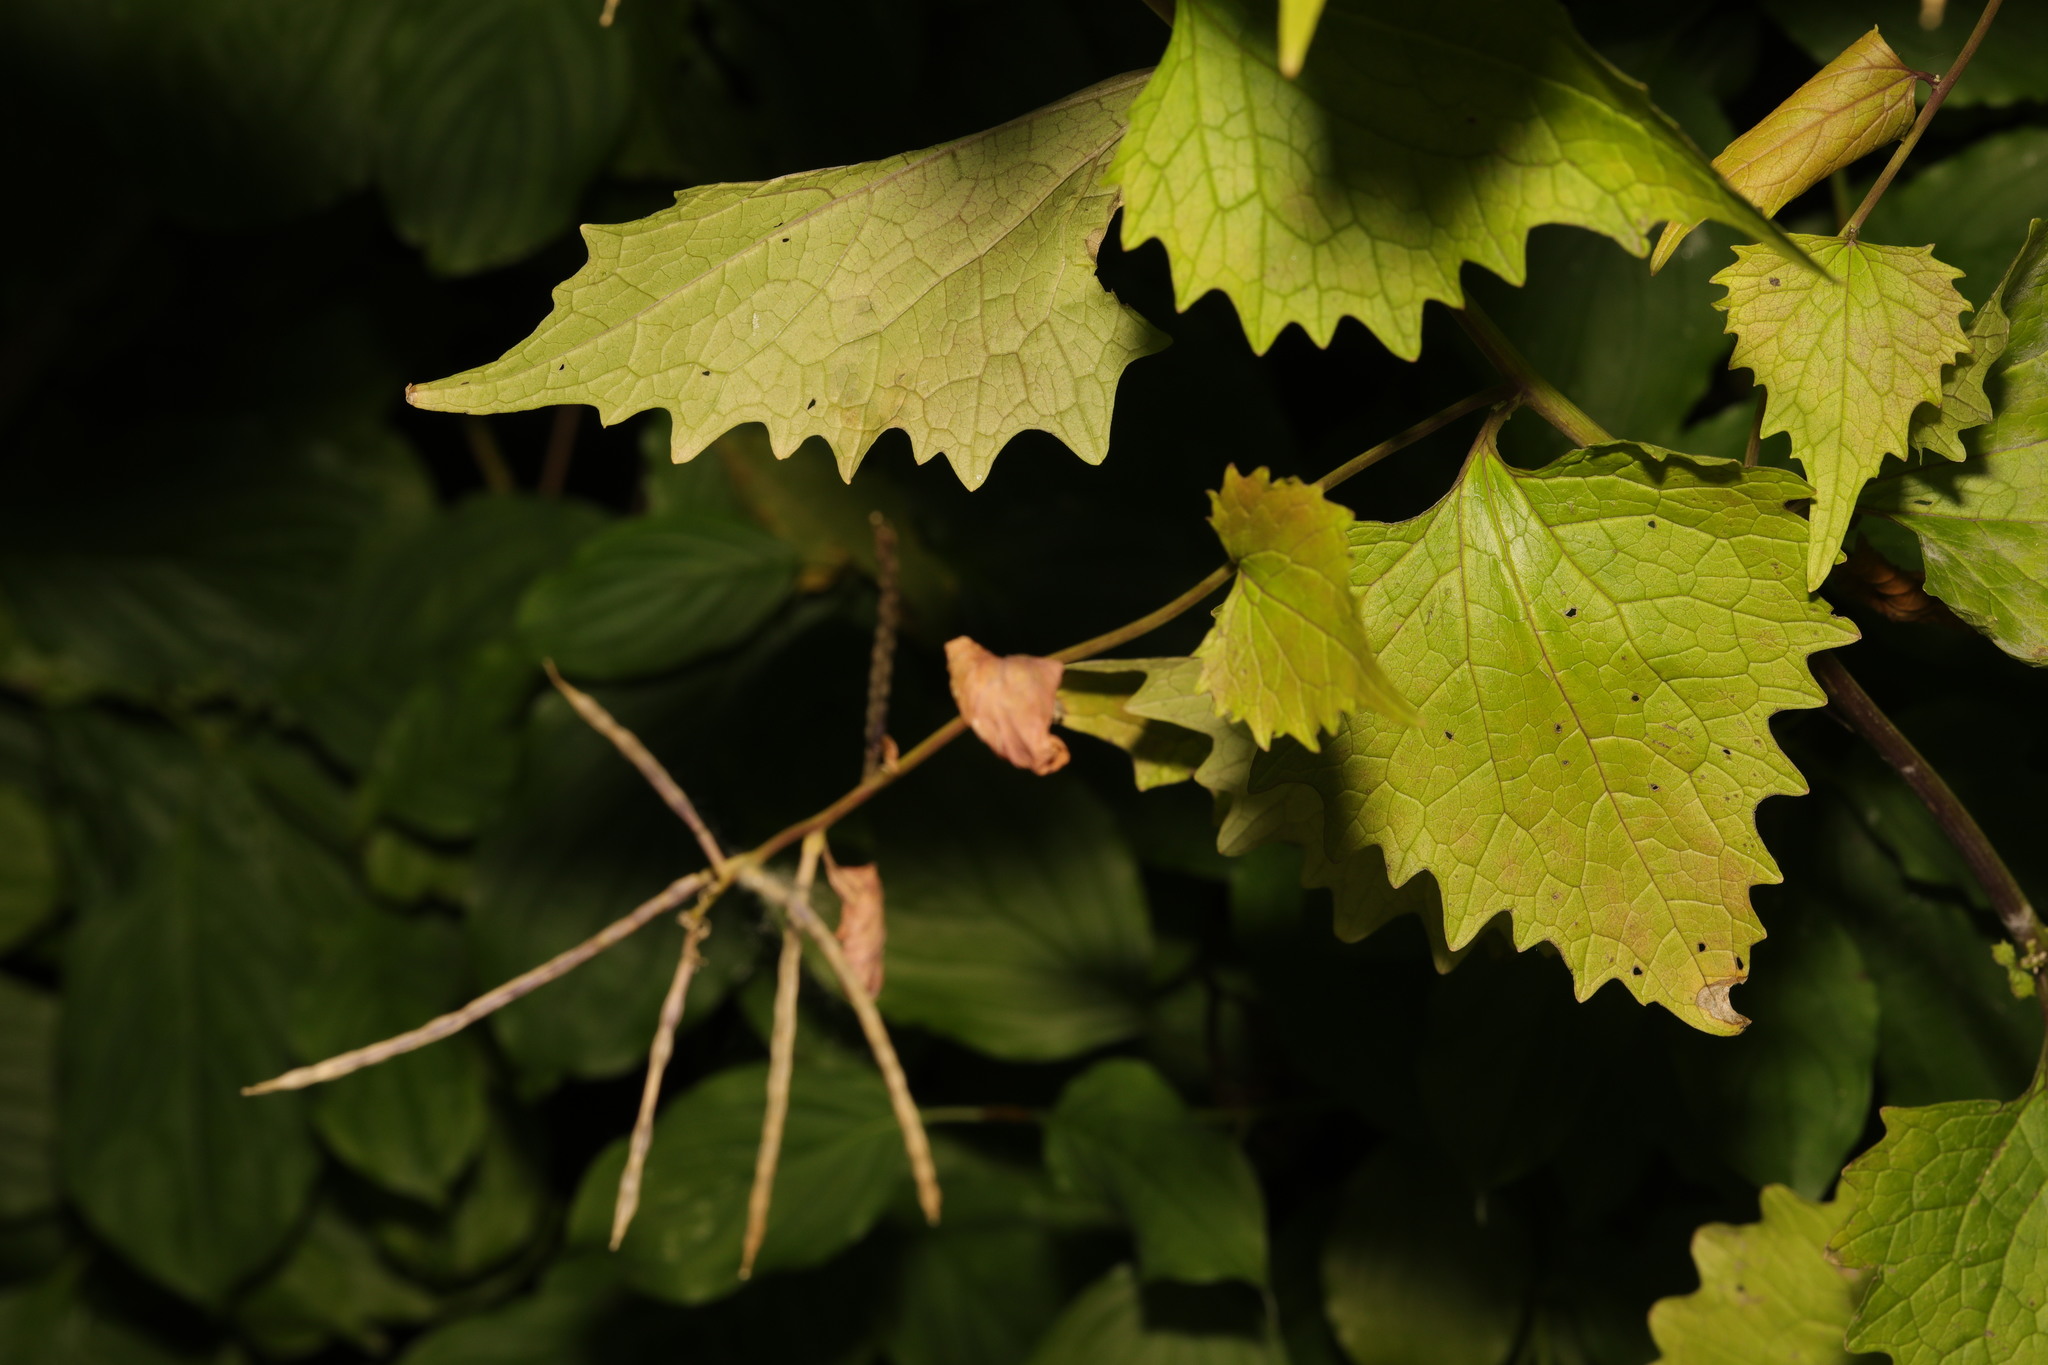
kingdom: Plantae
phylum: Tracheophyta
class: Magnoliopsida
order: Brassicales
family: Brassicaceae
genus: Alliaria
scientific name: Alliaria petiolata
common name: Garlic mustard
